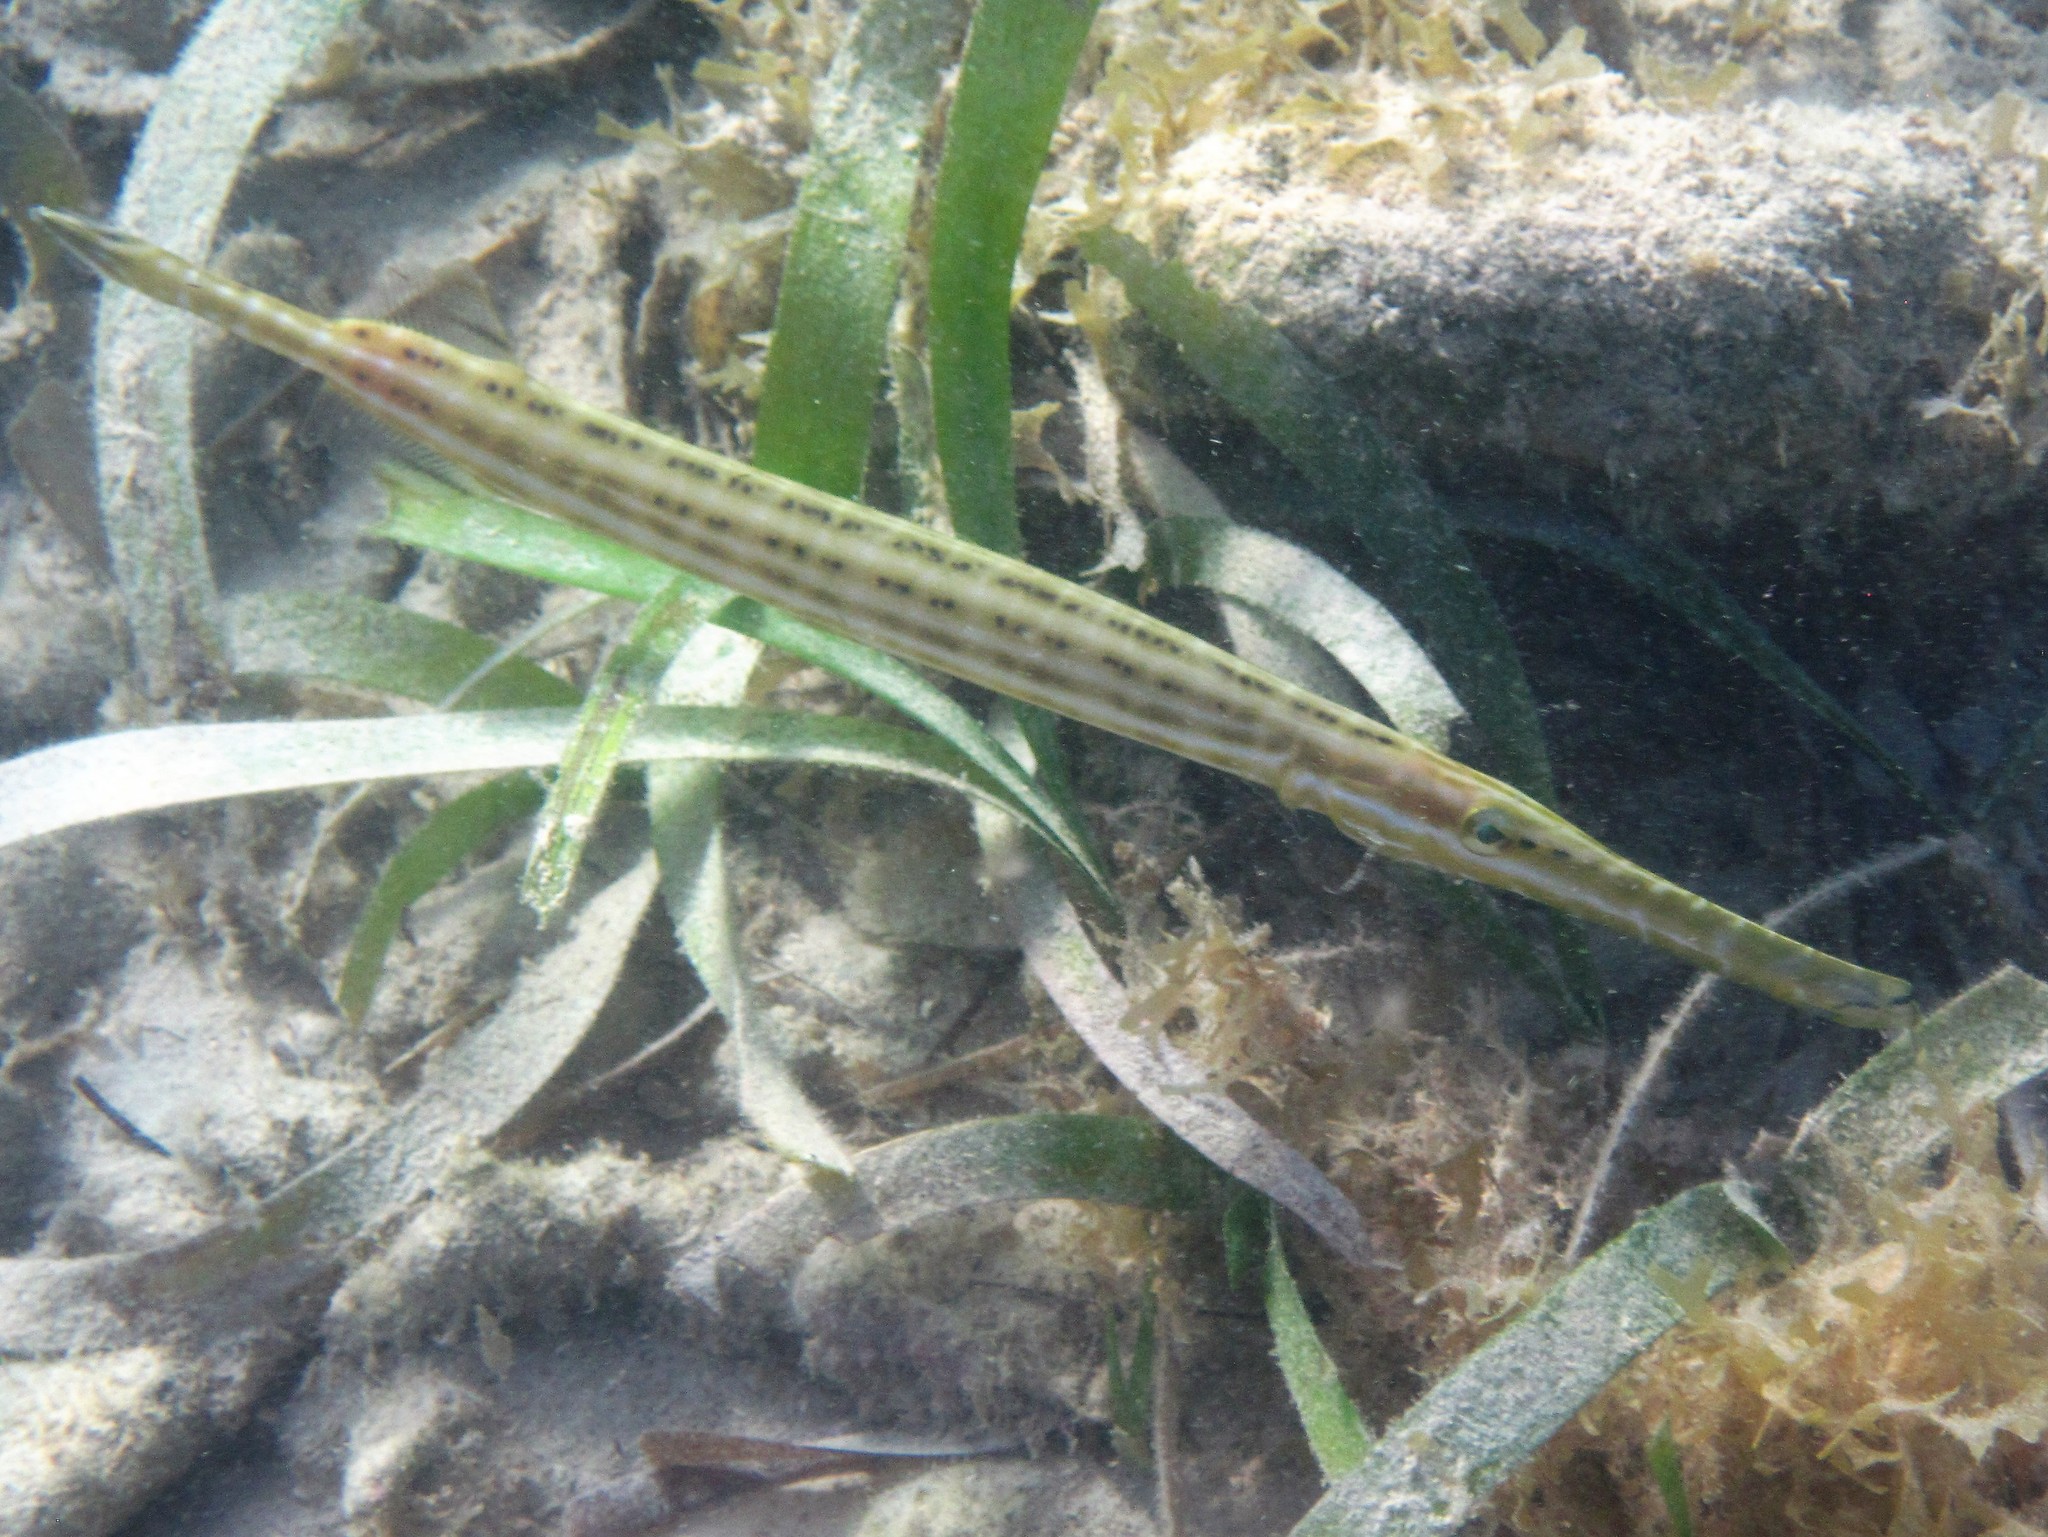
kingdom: Animalia
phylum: Chordata
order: Syngnathiformes
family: Aulostomidae
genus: Aulostomus
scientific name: Aulostomus maculatus
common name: West atlantic trumpetfish
